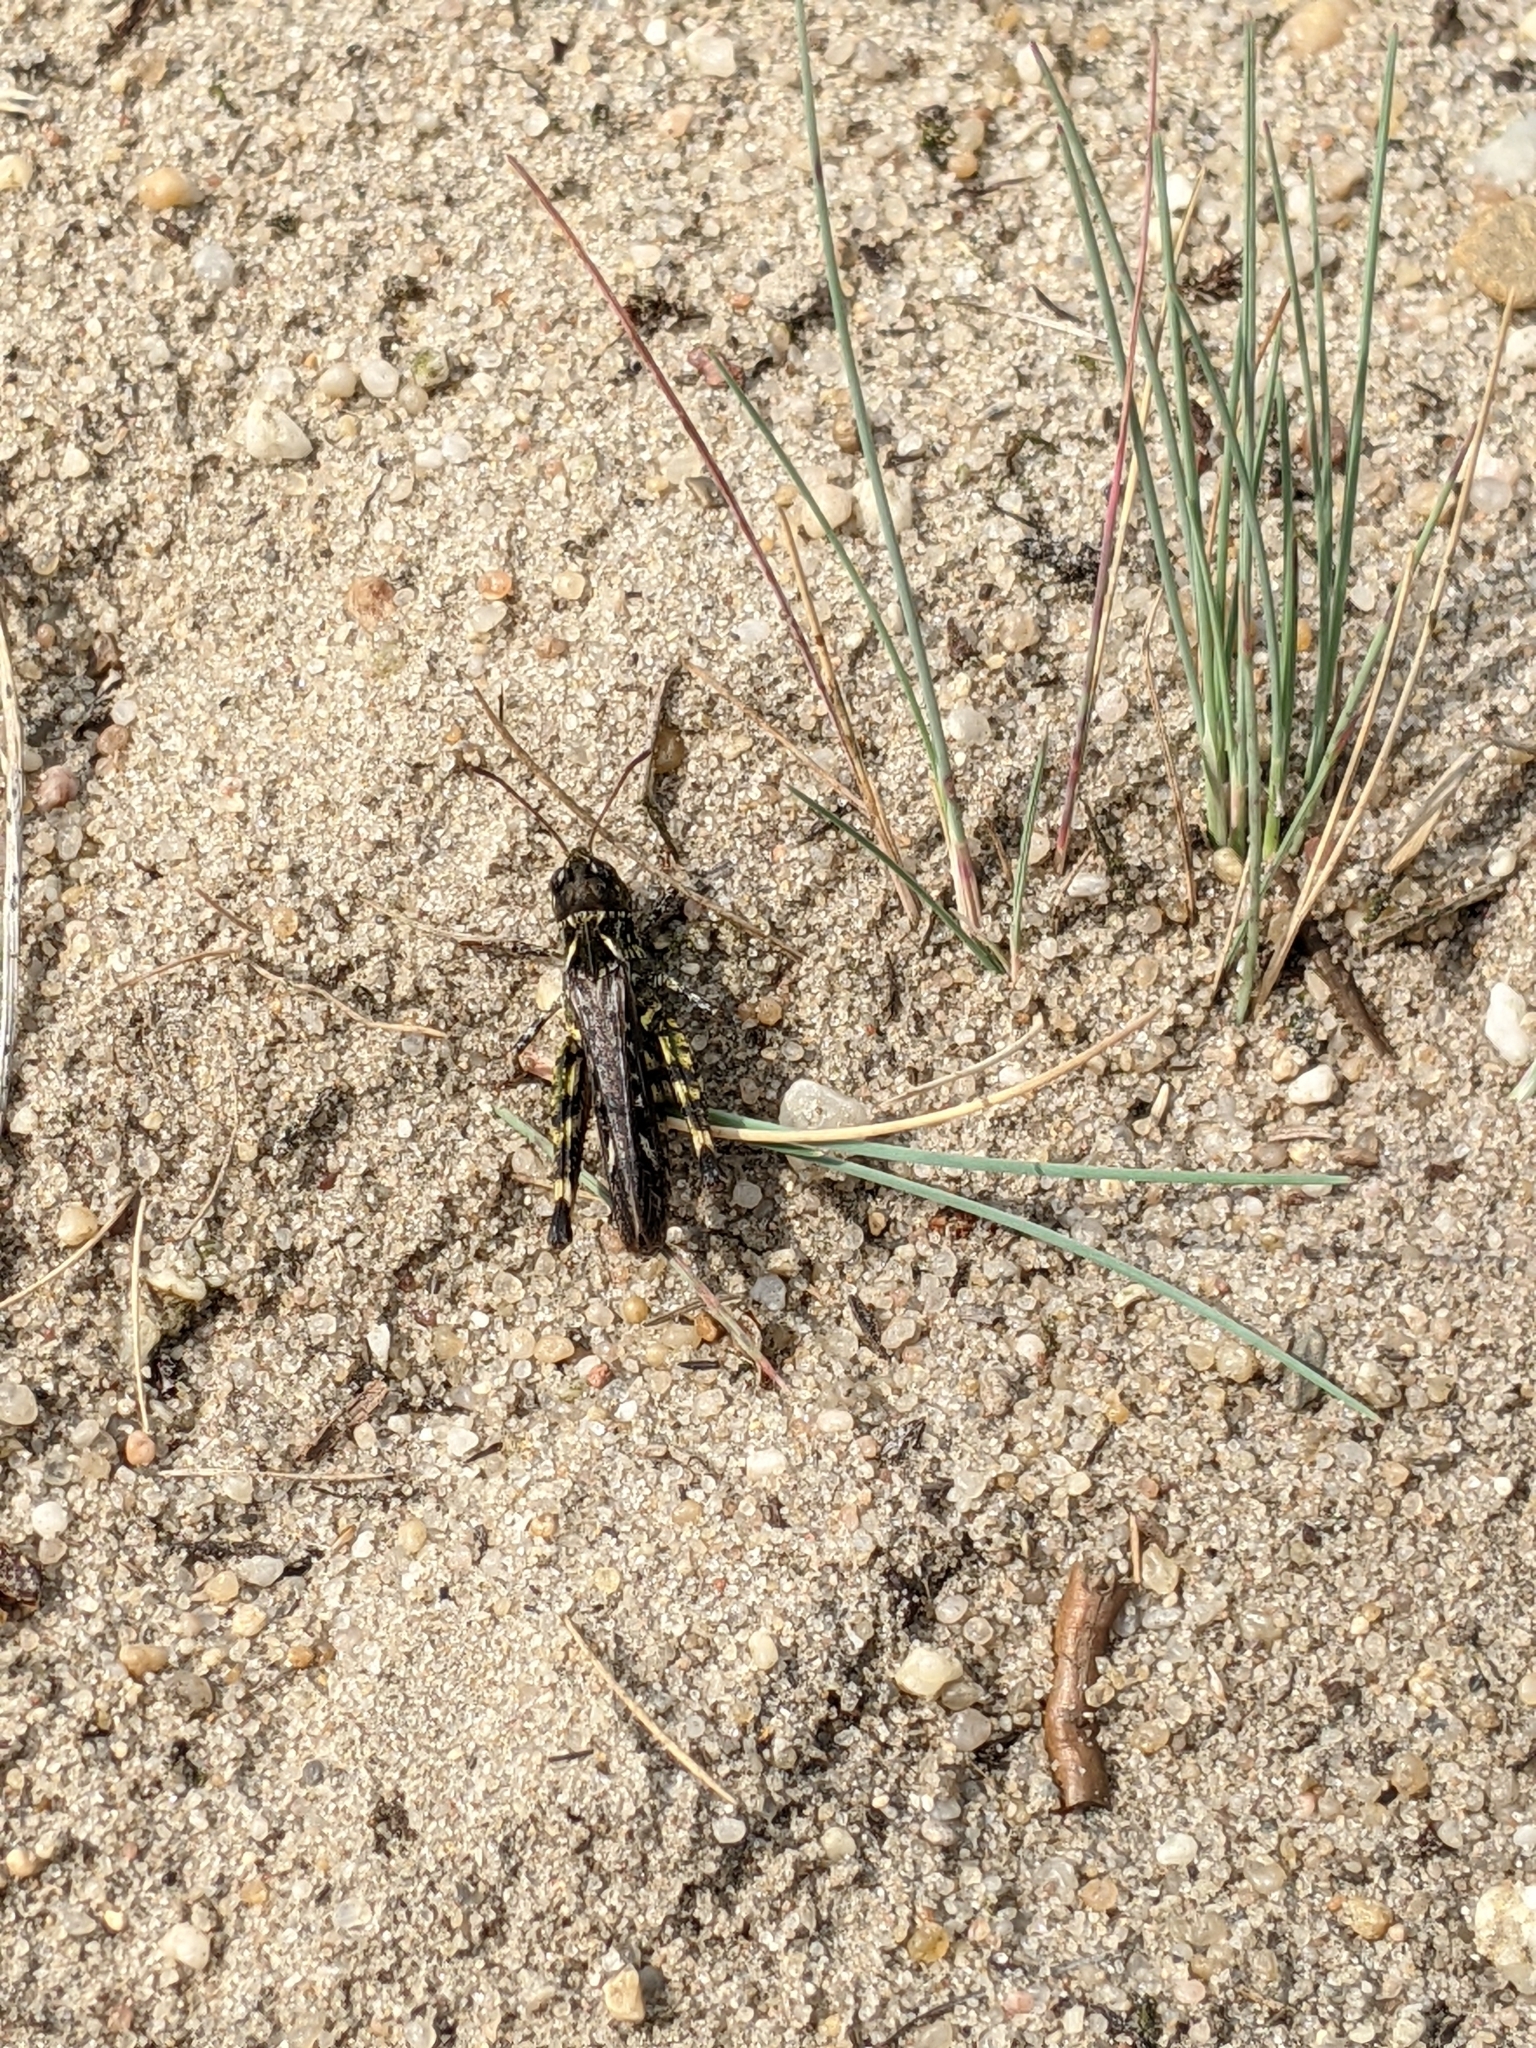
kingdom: Animalia
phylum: Arthropoda
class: Insecta
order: Orthoptera
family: Acrididae
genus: Myrmeleotettix
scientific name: Myrmeleotettix maculatus
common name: Mottled grasshopper
